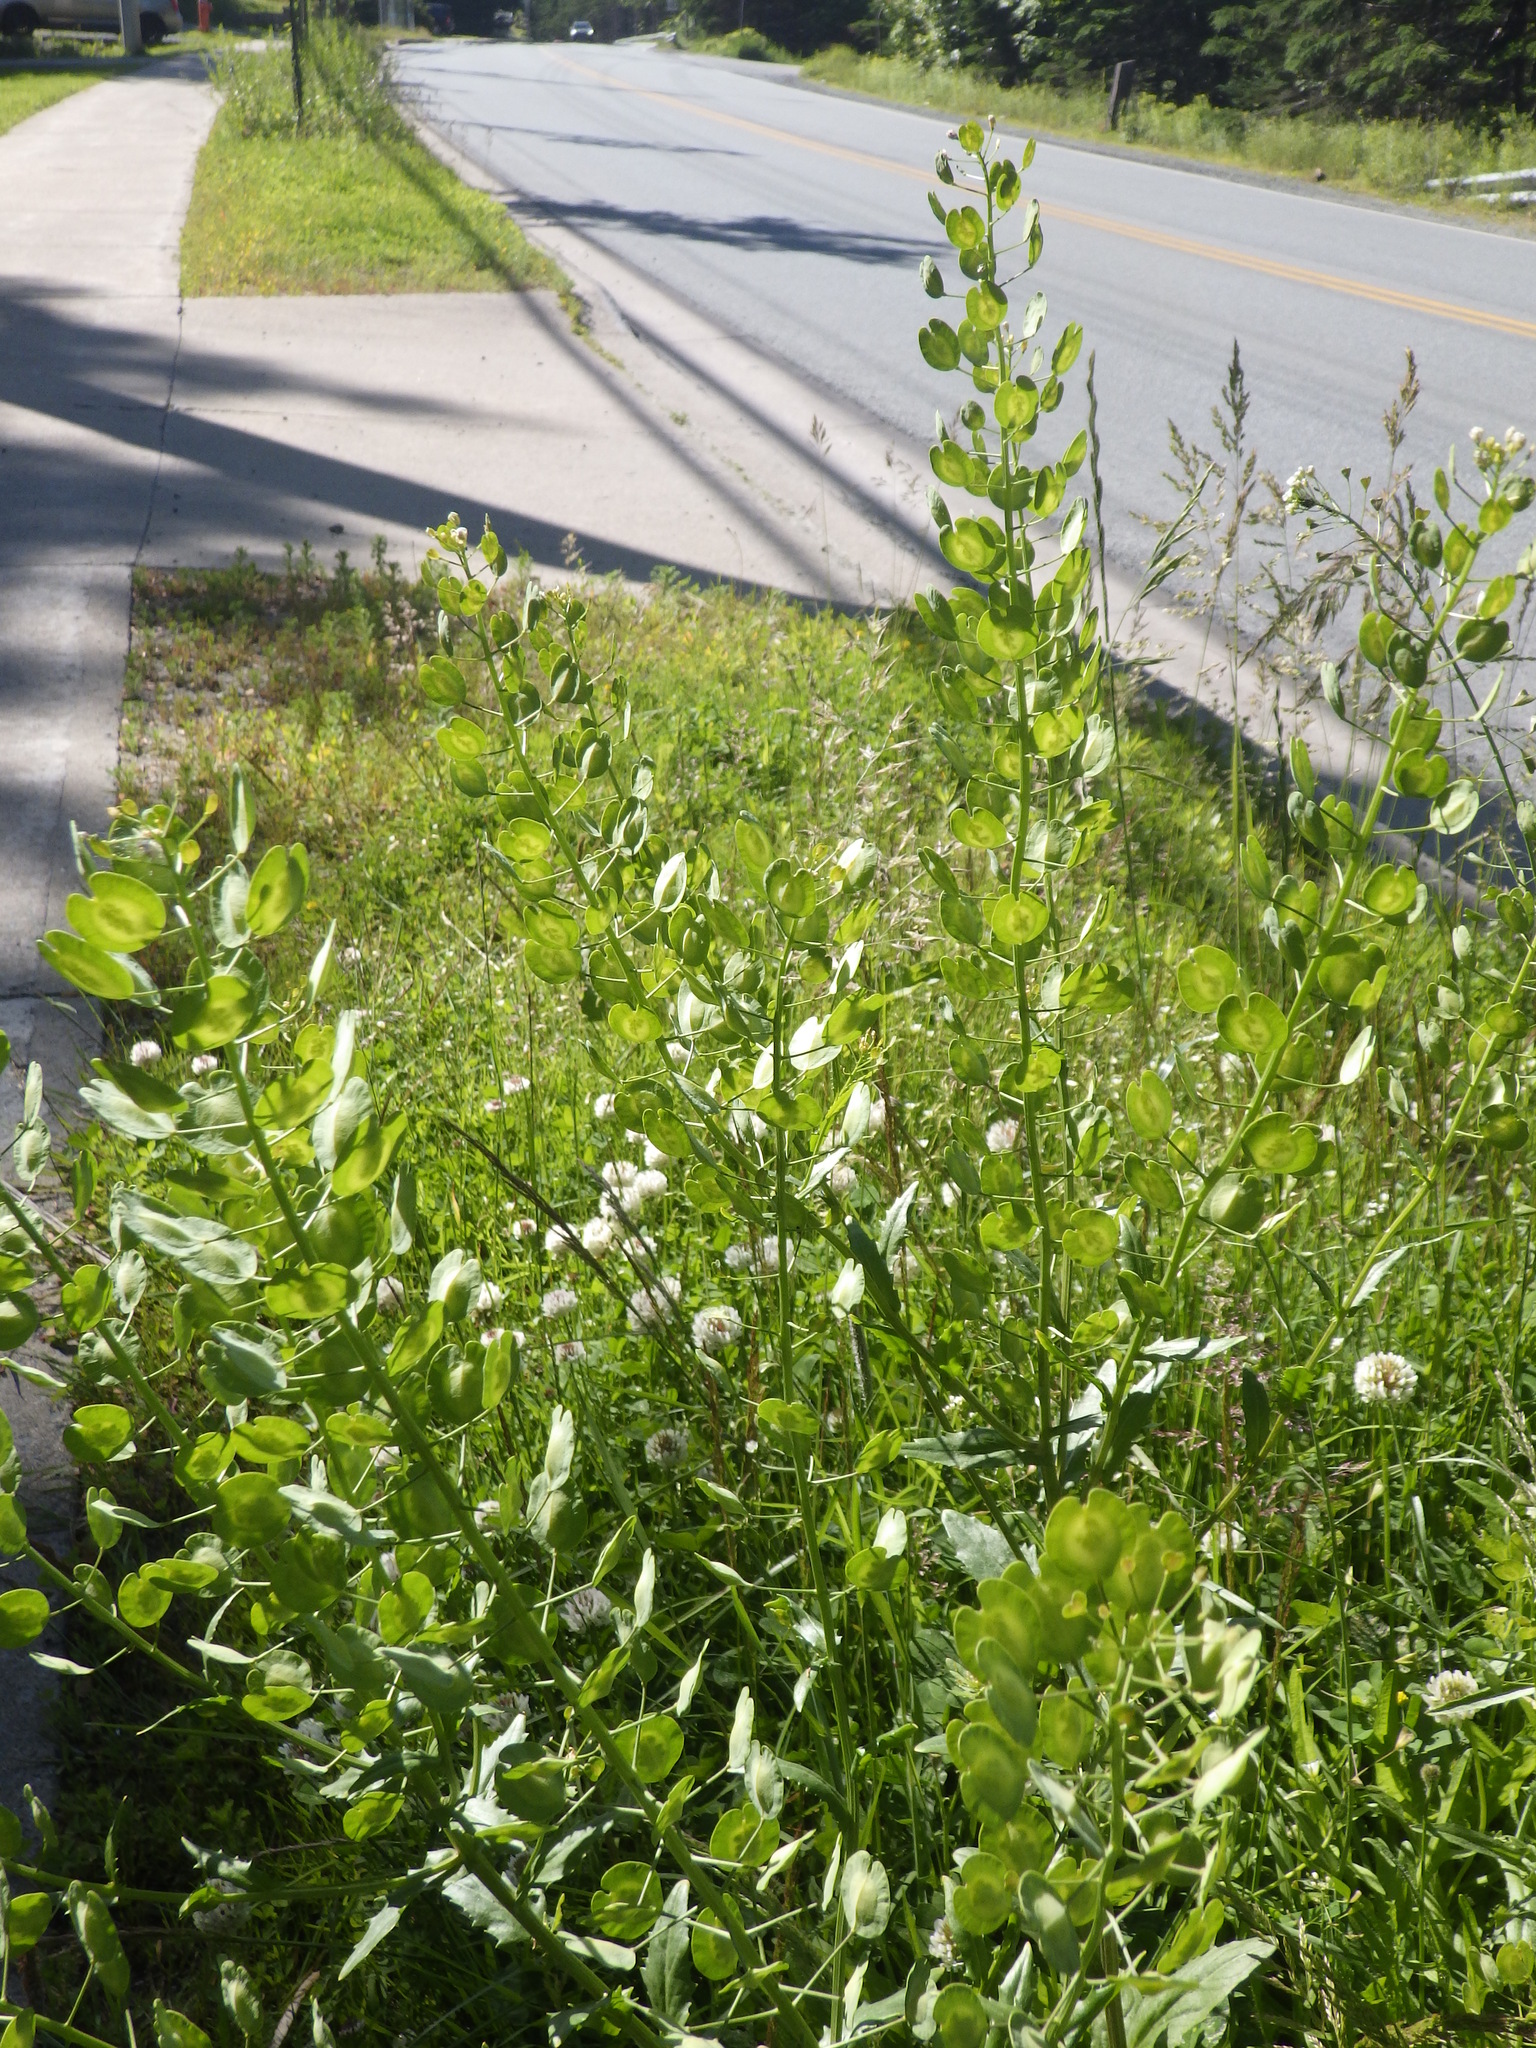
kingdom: Plantae
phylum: Tracheophyta
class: Magnoliopsida
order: Brassicales
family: Brassicaceae
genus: Thlaspi
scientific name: Thlaspi arvense
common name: Field pennycress
